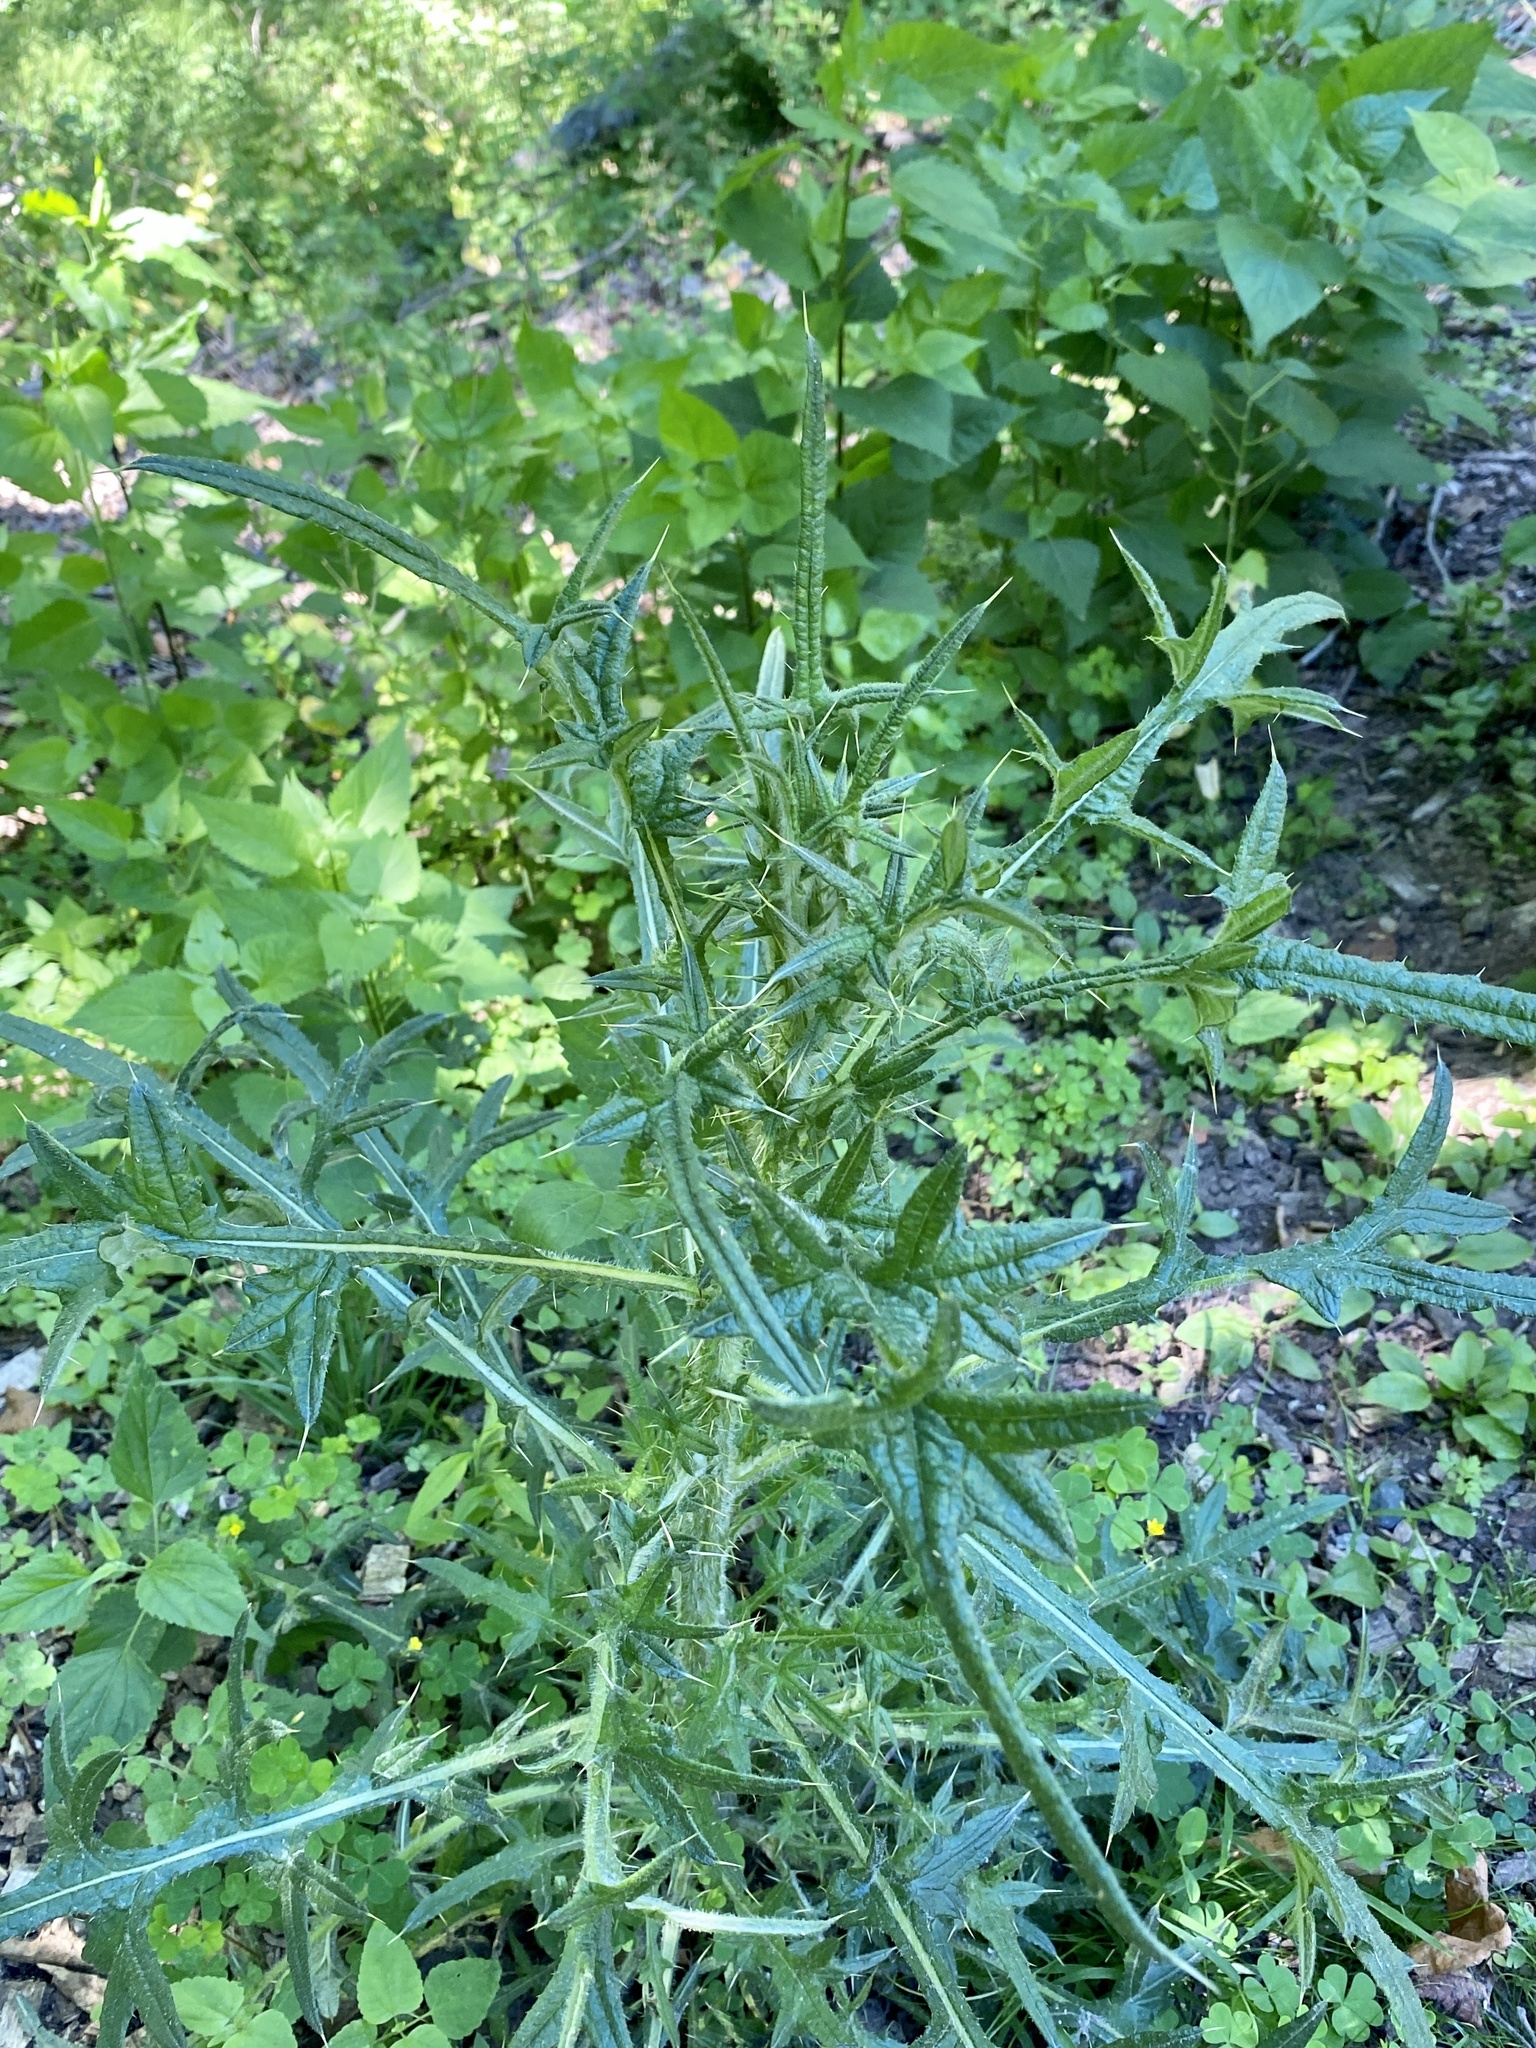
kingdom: Plantae
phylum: Tracheophyta
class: Magnoliopsida
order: Asterales
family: Asteraceae
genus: Cirsium
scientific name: Cirsium vulgare
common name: Bull thistle
